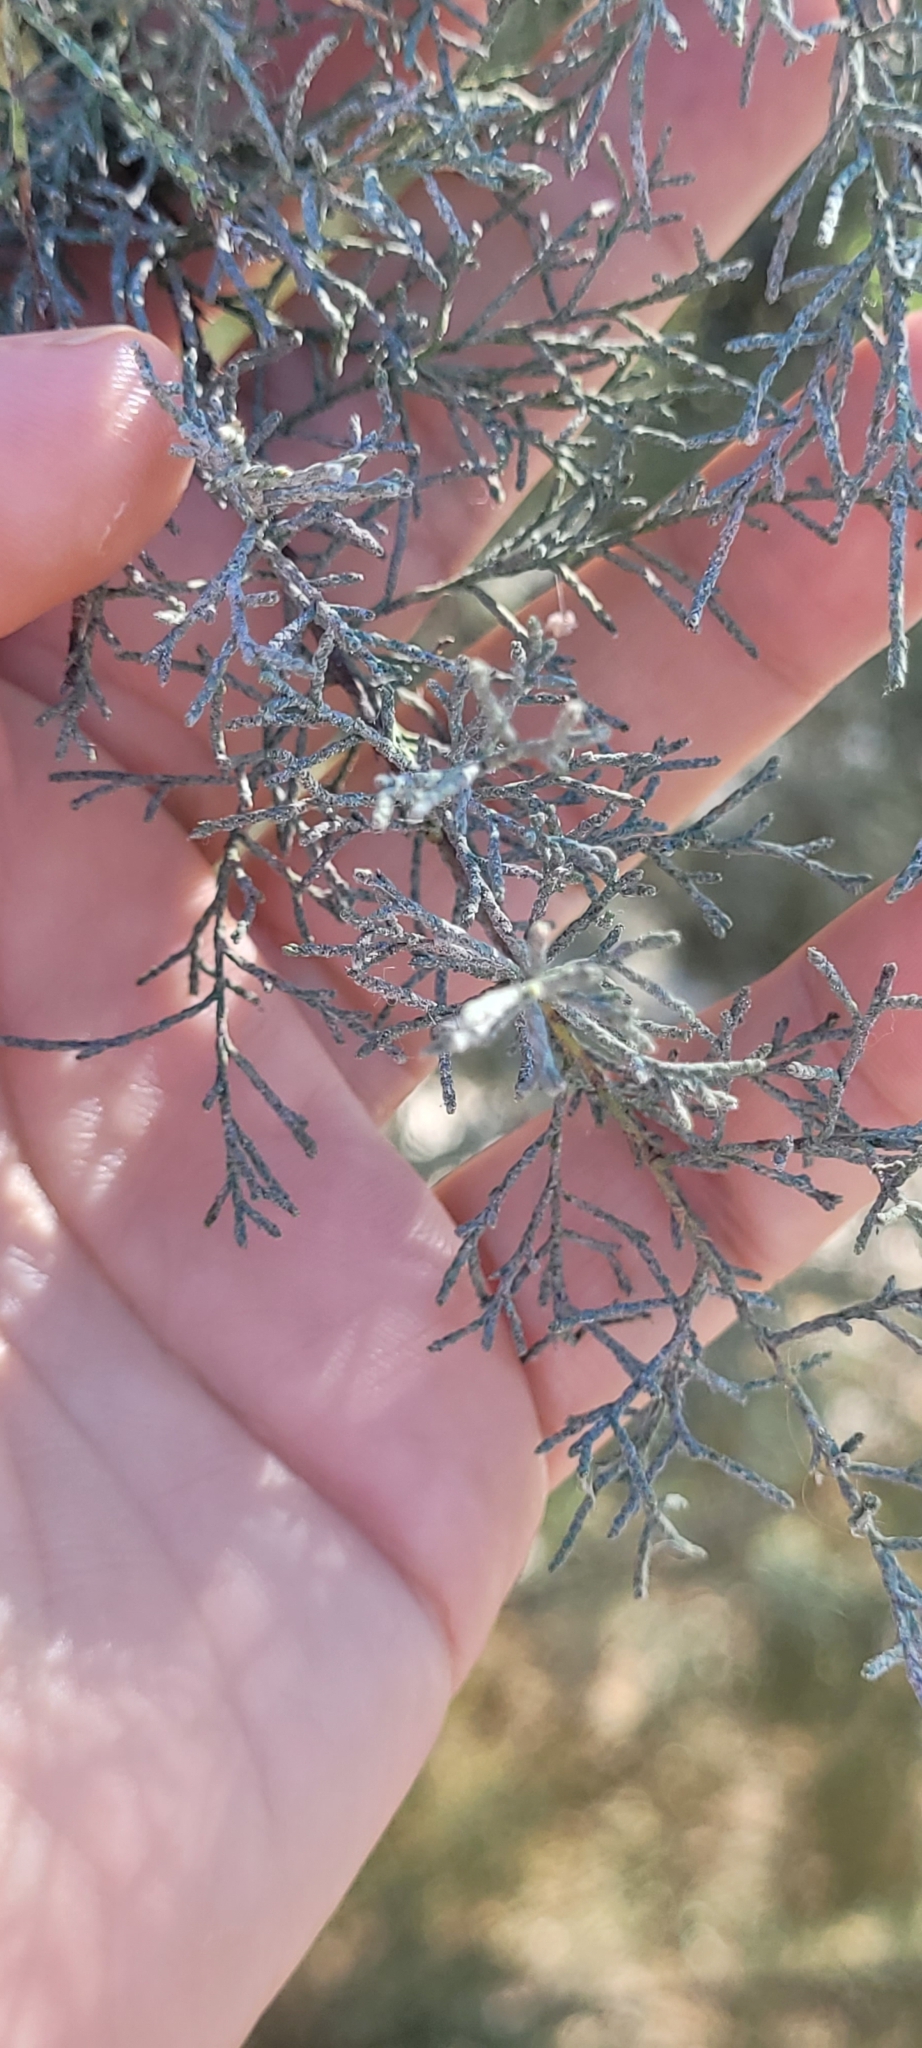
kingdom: Plantae
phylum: Tracheophyta
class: Magnoliopsida
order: Caryophyllales
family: Tamaricaceae
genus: Tamarix
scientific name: Tamarix africana
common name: African tamarisk
